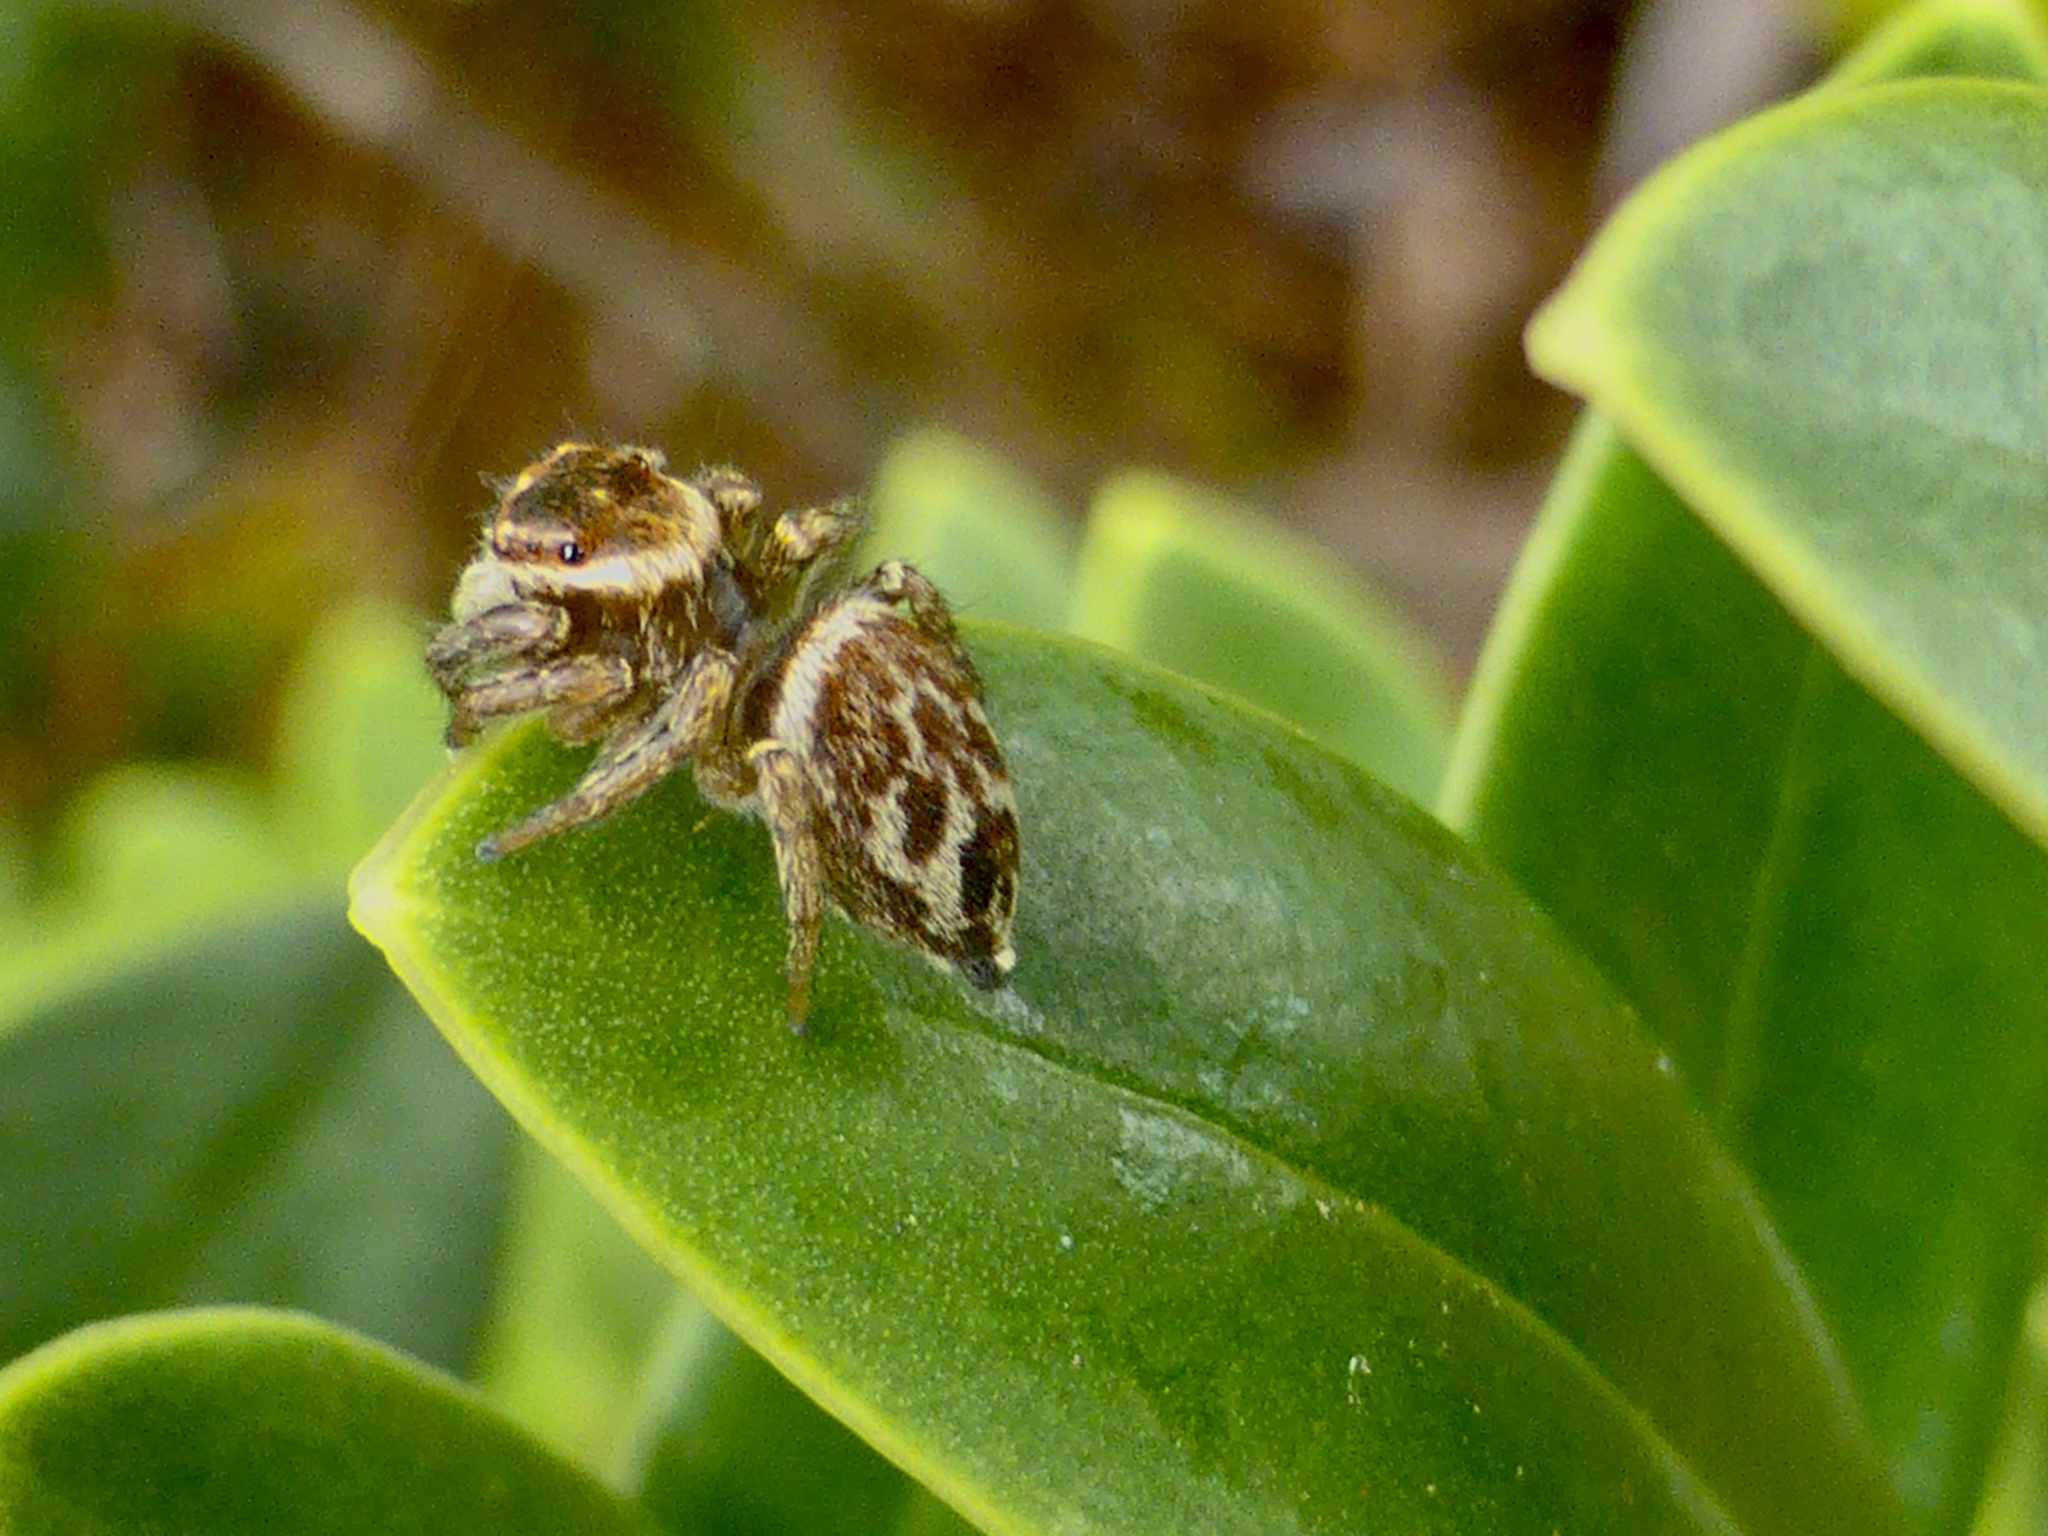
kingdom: Animalia
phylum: Arthropoda
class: Arachnida
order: Araneae
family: Salticidae
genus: Maratus
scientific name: Maratus griseus
